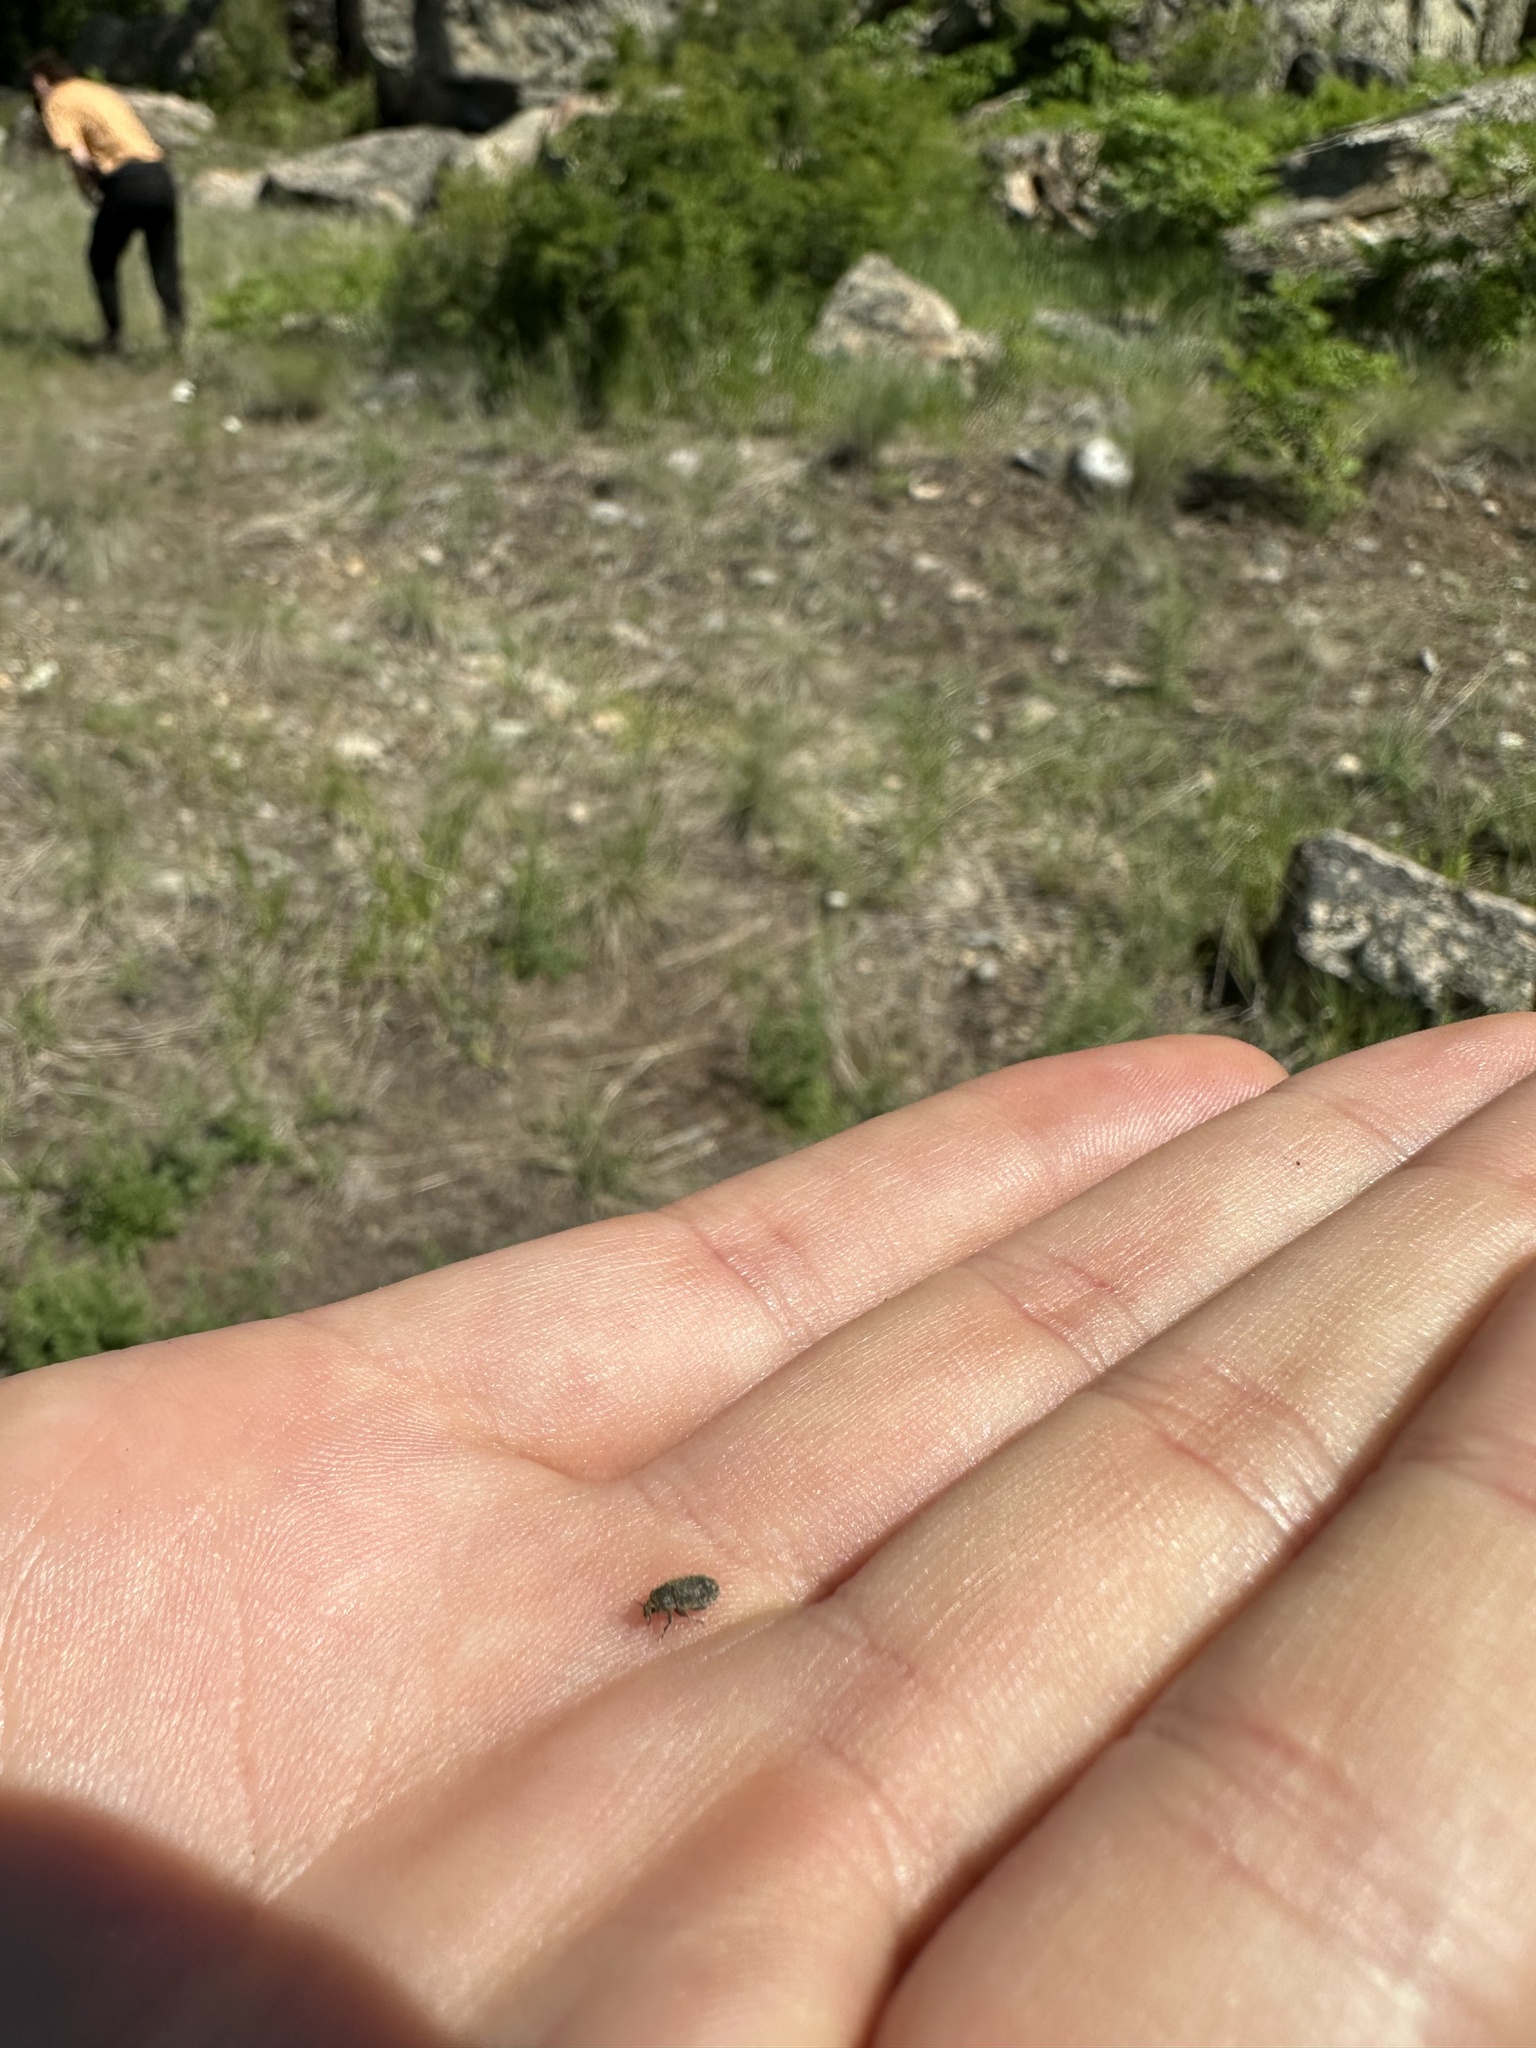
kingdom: Animalia
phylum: Arthropoda
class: Insecta
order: Coleoptera
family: Curculionidae
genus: Bangasternus
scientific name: Bangasternus fausti
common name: Broad-nosed knapweed seedhead weevil
